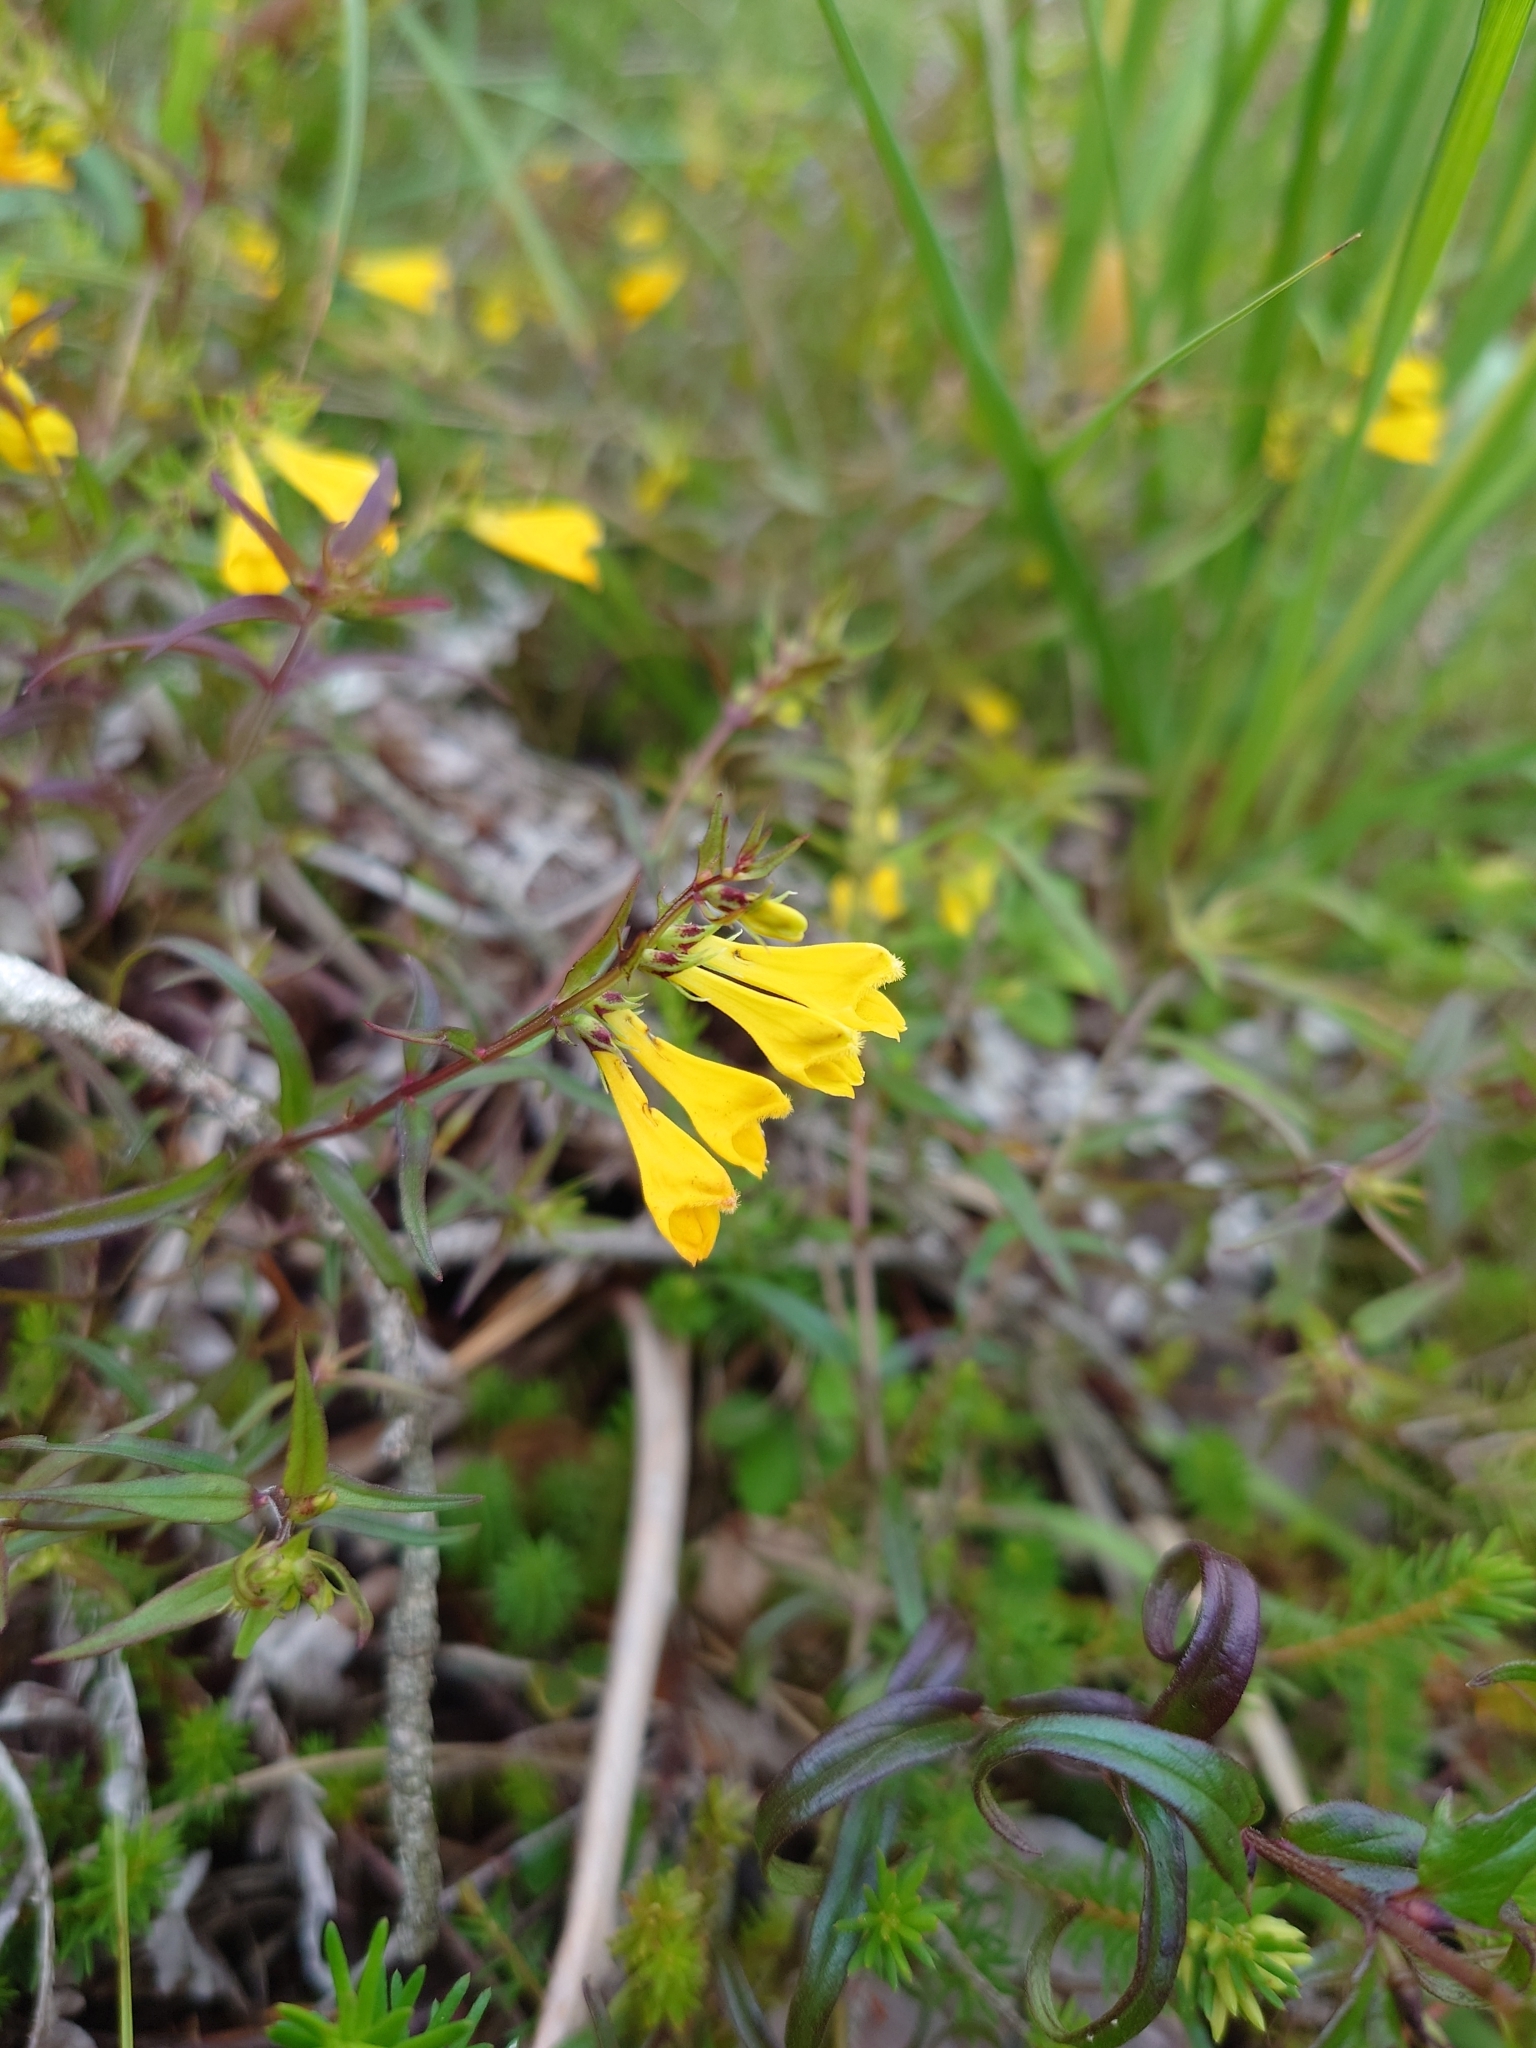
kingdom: Plantae
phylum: Tracheophyta
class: Magnoliopsida
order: Lamiales
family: Orobanchaceae
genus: Melampyrum
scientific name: Melampyrum pratense
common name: Common cow-wheat
